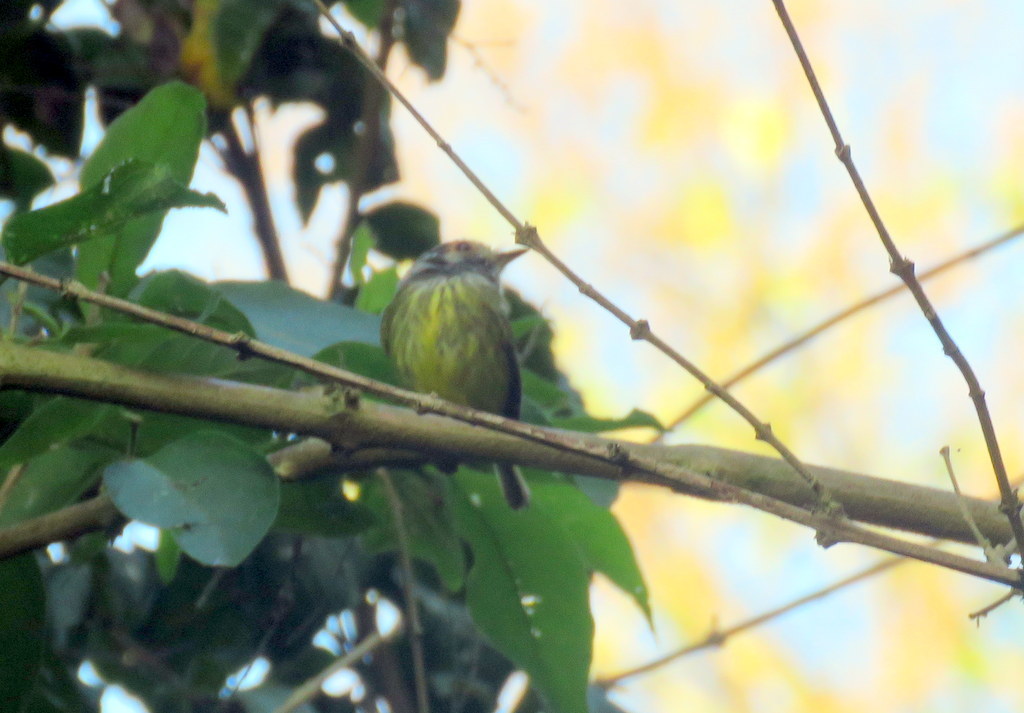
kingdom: Animalia
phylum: Chordata
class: Aves
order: Passeriformes
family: Tyrannidae
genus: Myiornis
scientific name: Myiornis auricularis
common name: Eared pygmy tyrant
